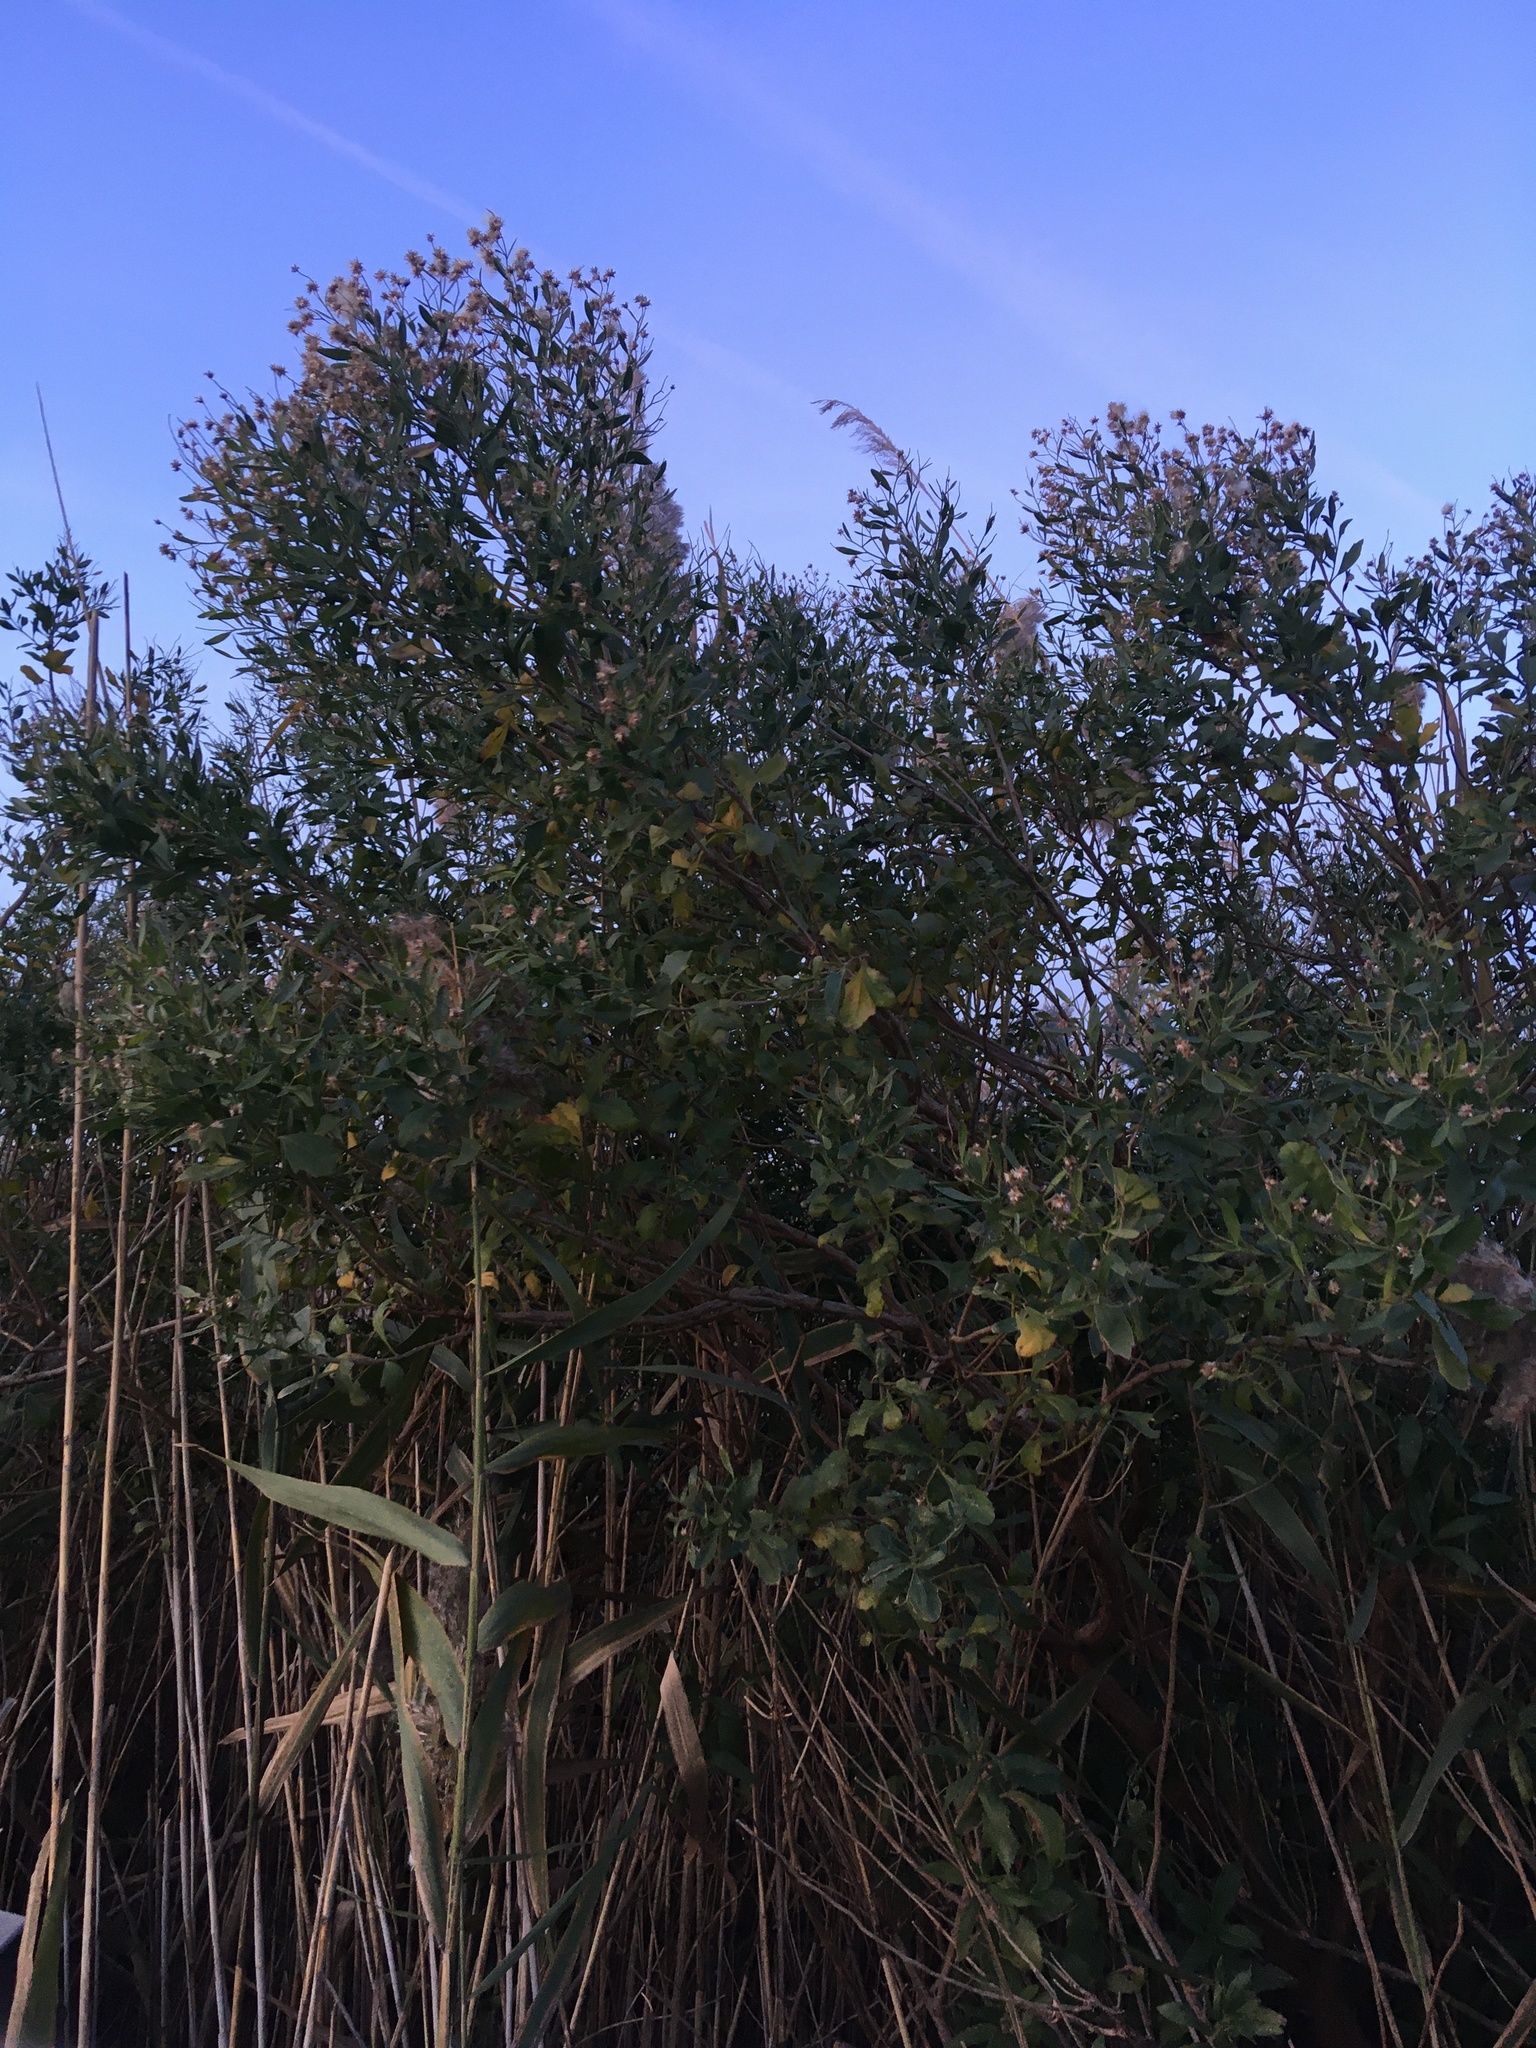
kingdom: Plantae
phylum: Tracheophyta
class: Magnoliopsida
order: Asterales
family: Asteraceae
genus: Baccharis
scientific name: Baccharis halimifolia
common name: Eastern baccharis
